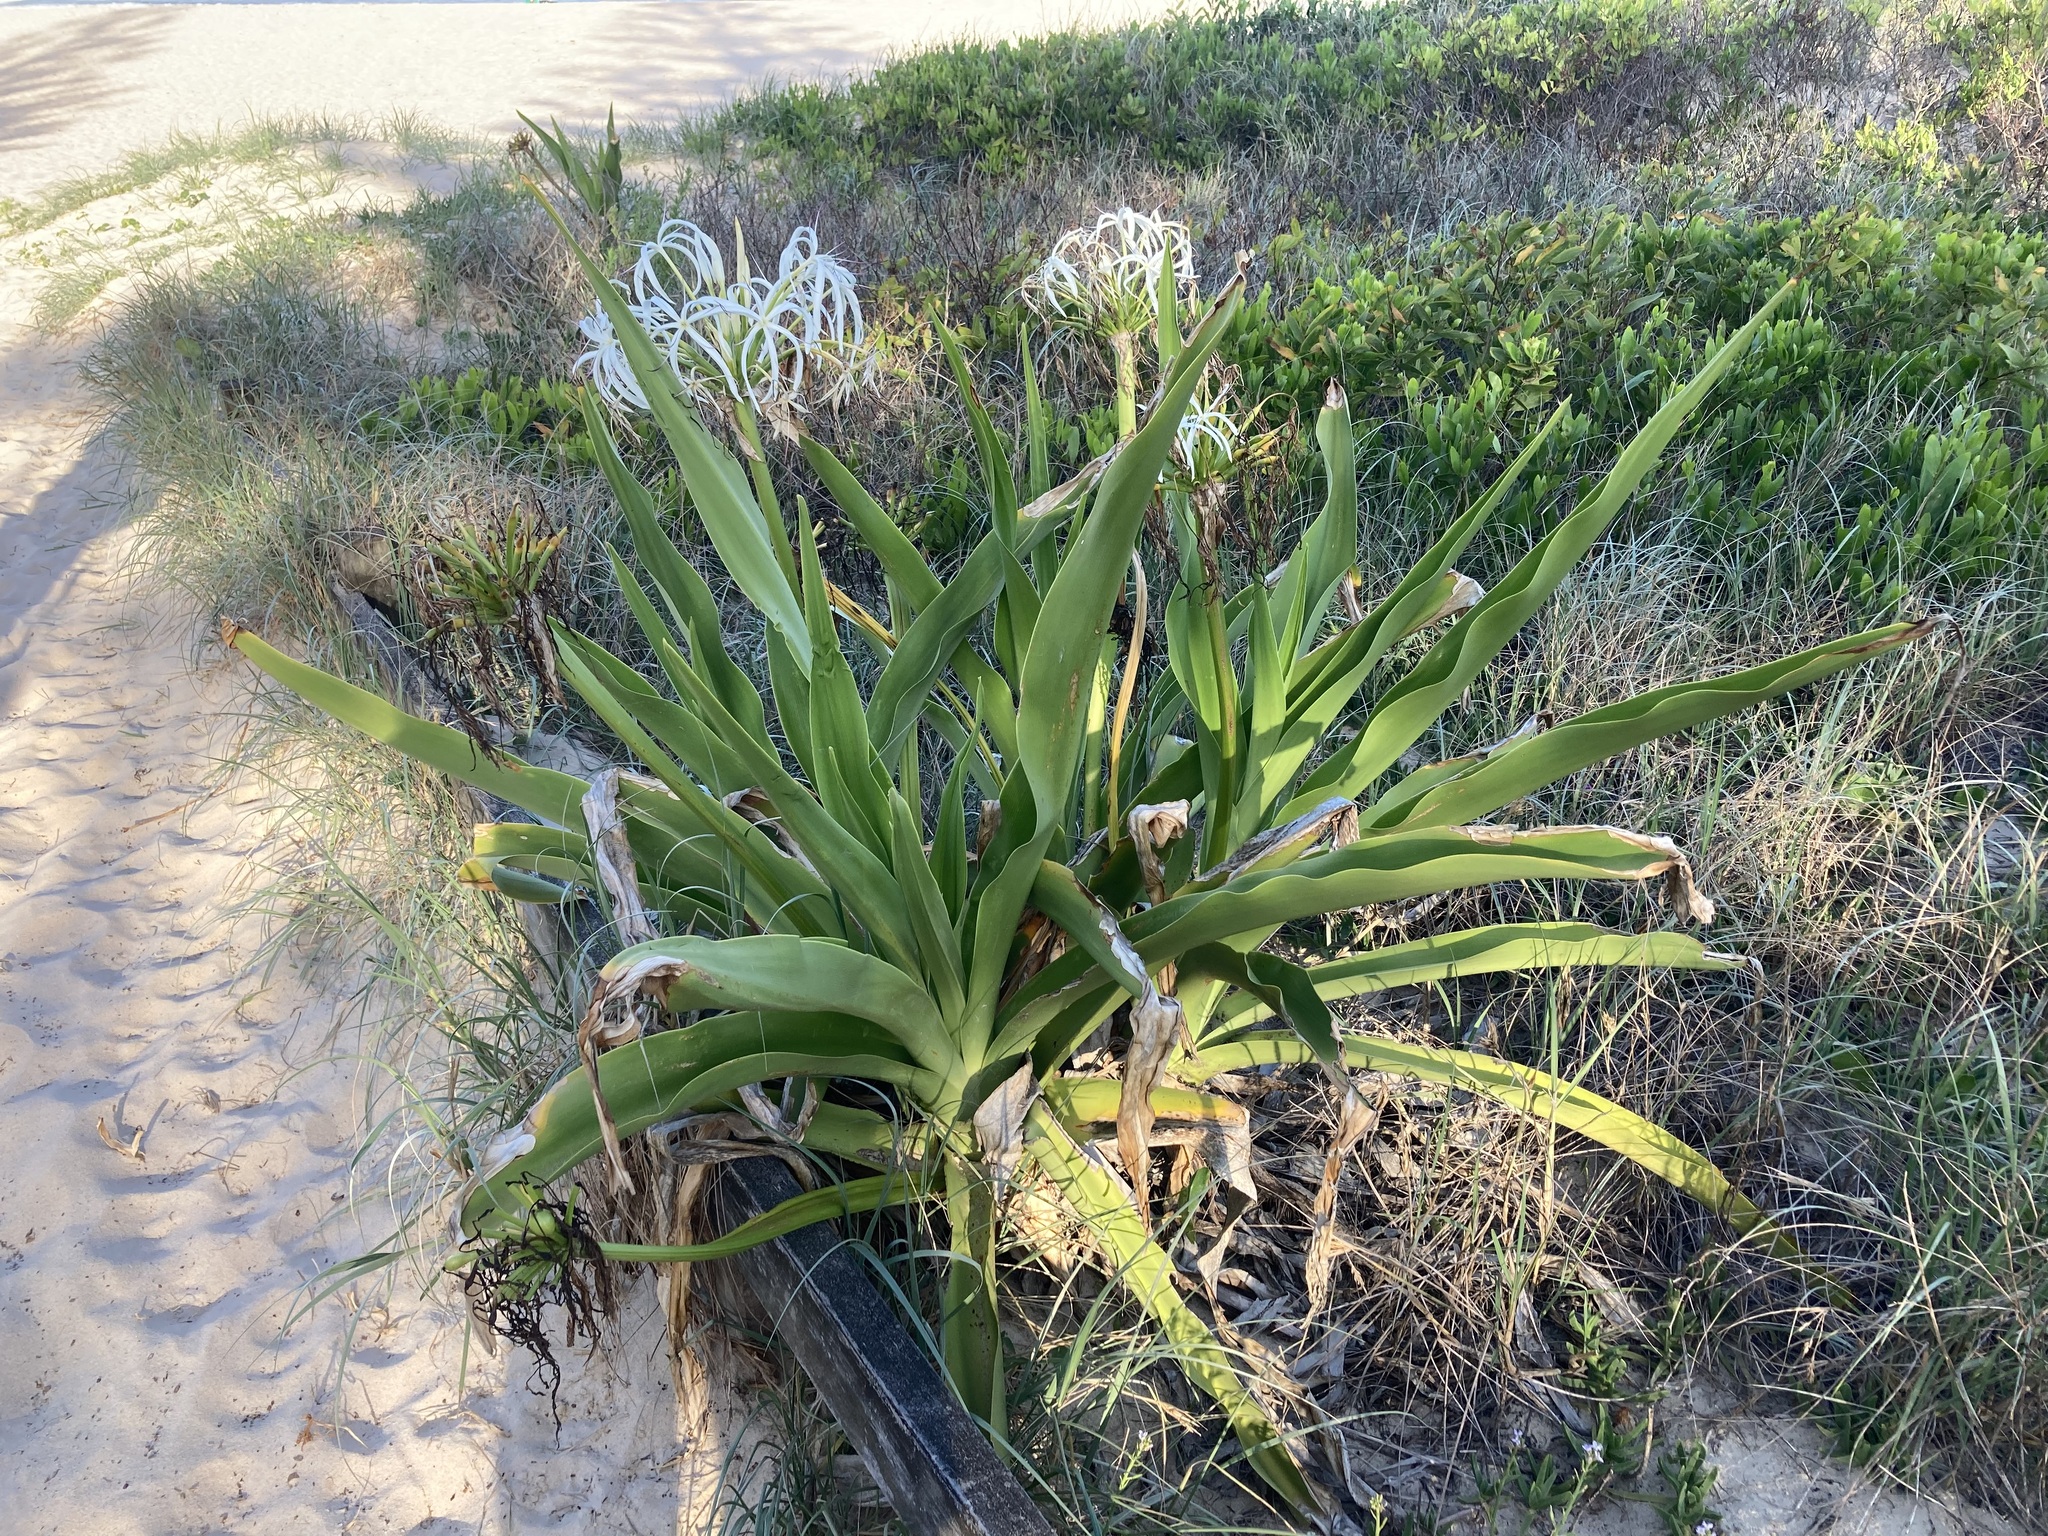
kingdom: Plantae
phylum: Tracheophyta
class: Liliopsida
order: Asparagales
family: Amaryllidaceae
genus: Crinum
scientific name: Crinum pedunculatum
